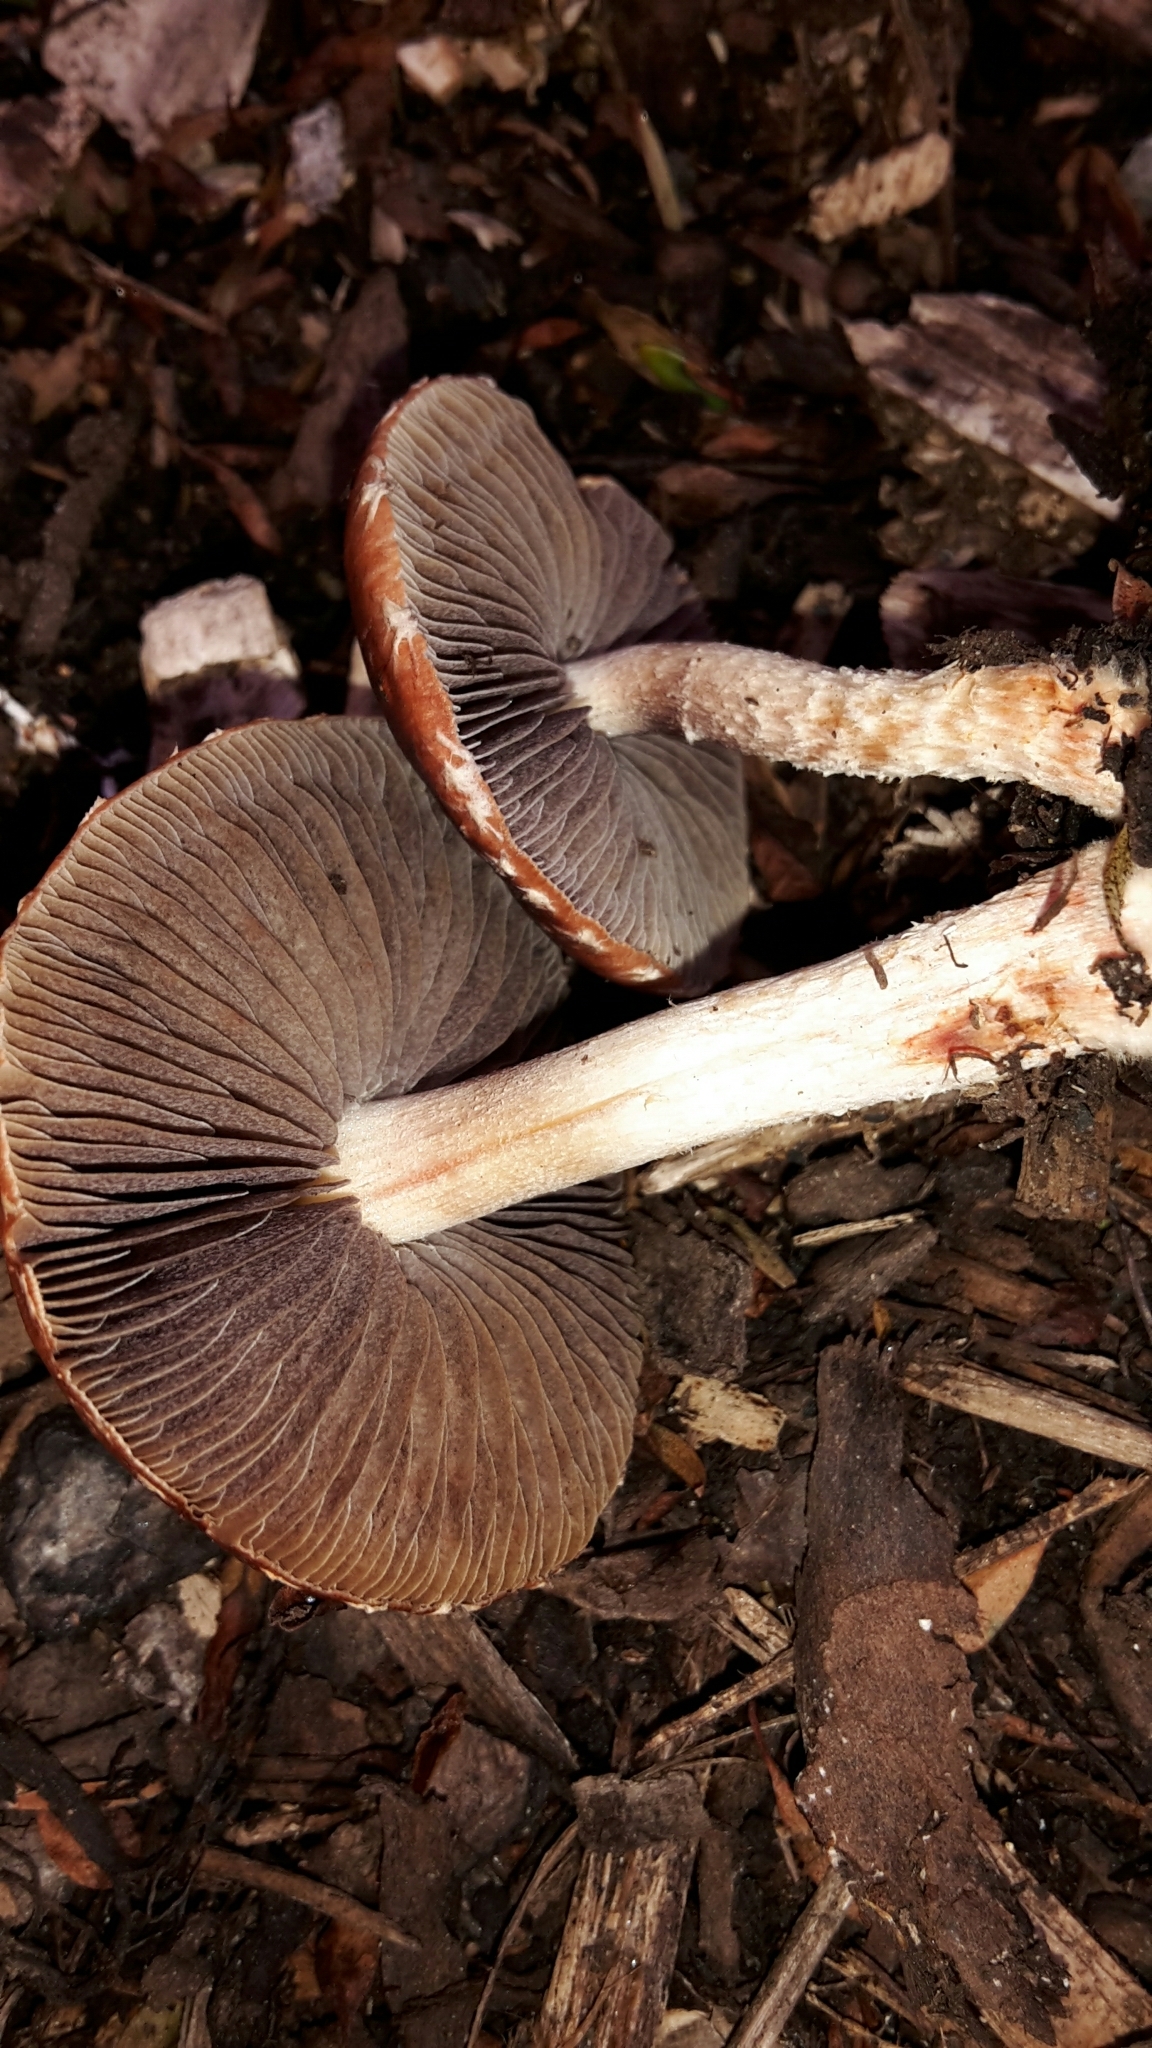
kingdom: Fungi
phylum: Basidiomycota
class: Agaricomycetes
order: Agaricales
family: Strophariaceae
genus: Leratiomyces
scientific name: Leratiomyces ceres
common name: Redlead roundhead
